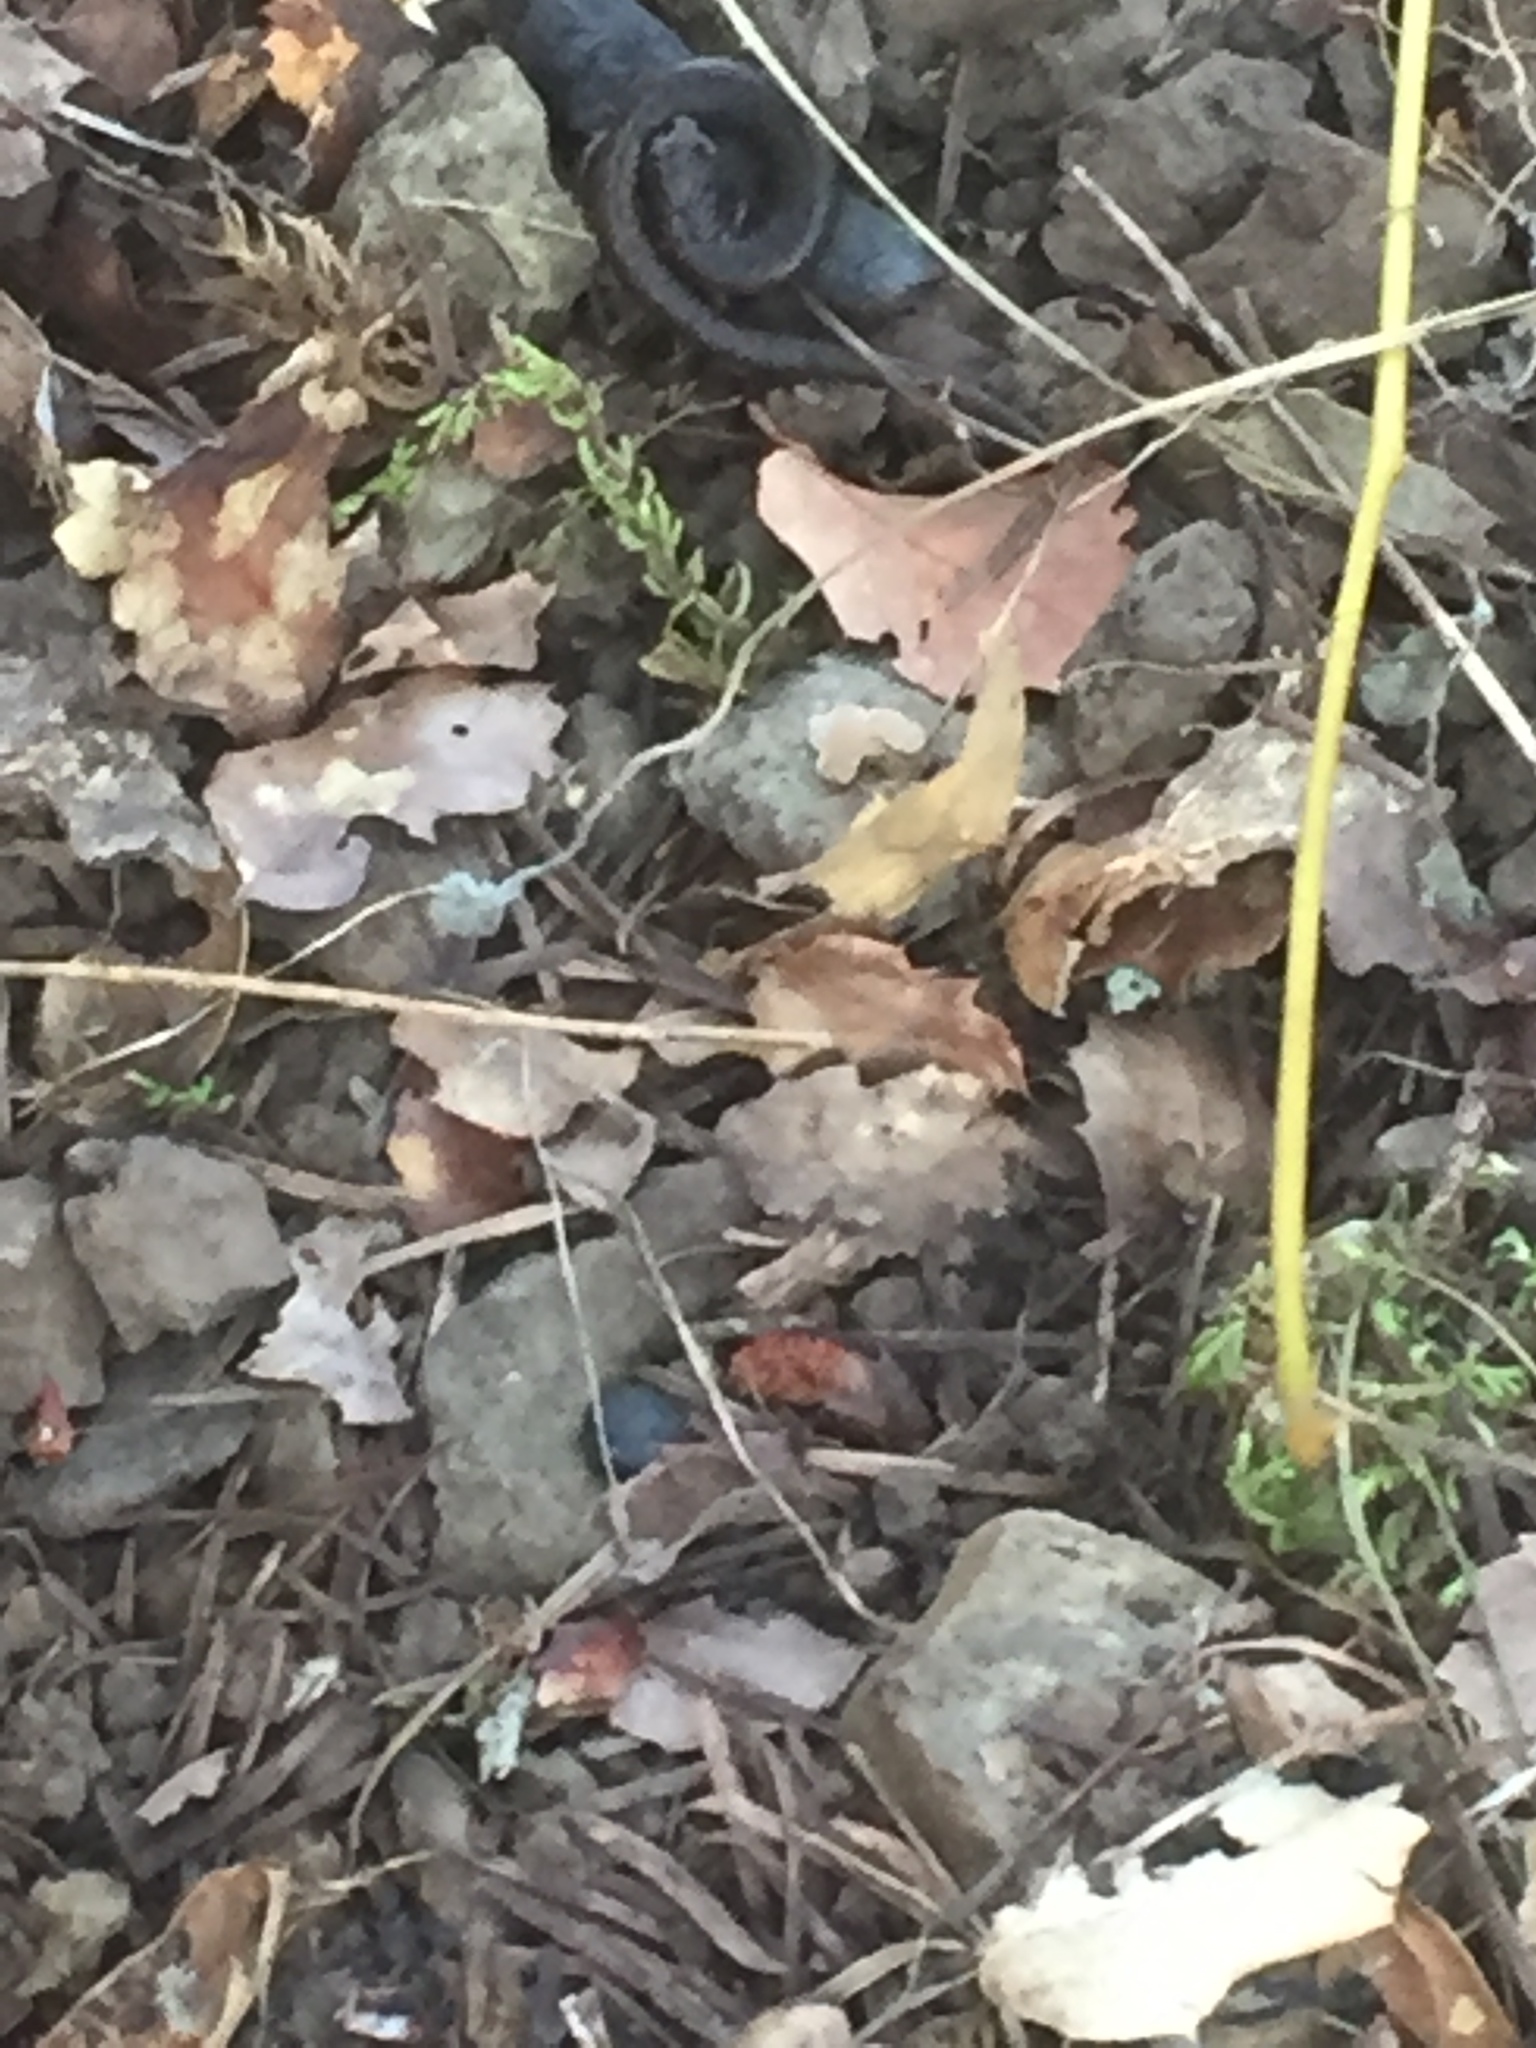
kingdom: Animalia
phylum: Chordata
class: Amphibia
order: Caudata
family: Plethodontidae
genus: Batrachoseps
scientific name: Batrachoseps attenuatus
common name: California slender salamander
